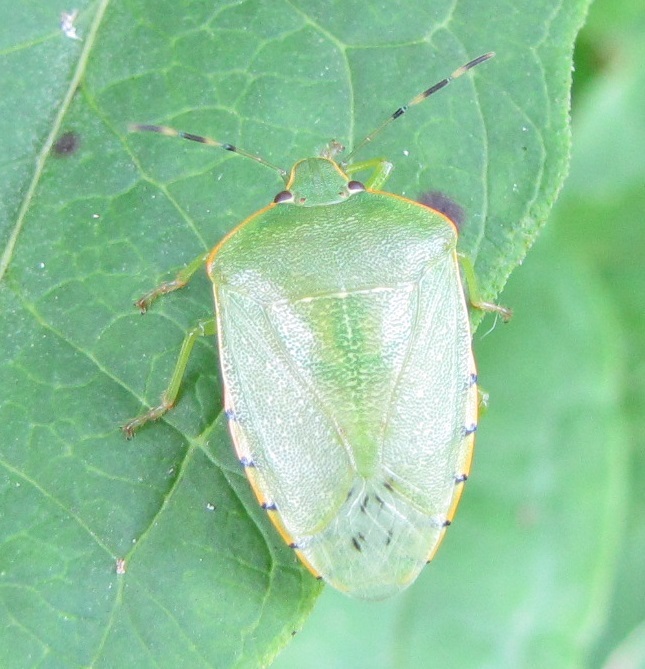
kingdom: Animalia
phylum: Arthropoda
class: Insecta
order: Hemiptera
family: Pentatomidae
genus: Chinavia
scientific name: Chinavia hilaris
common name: Green stink bug
